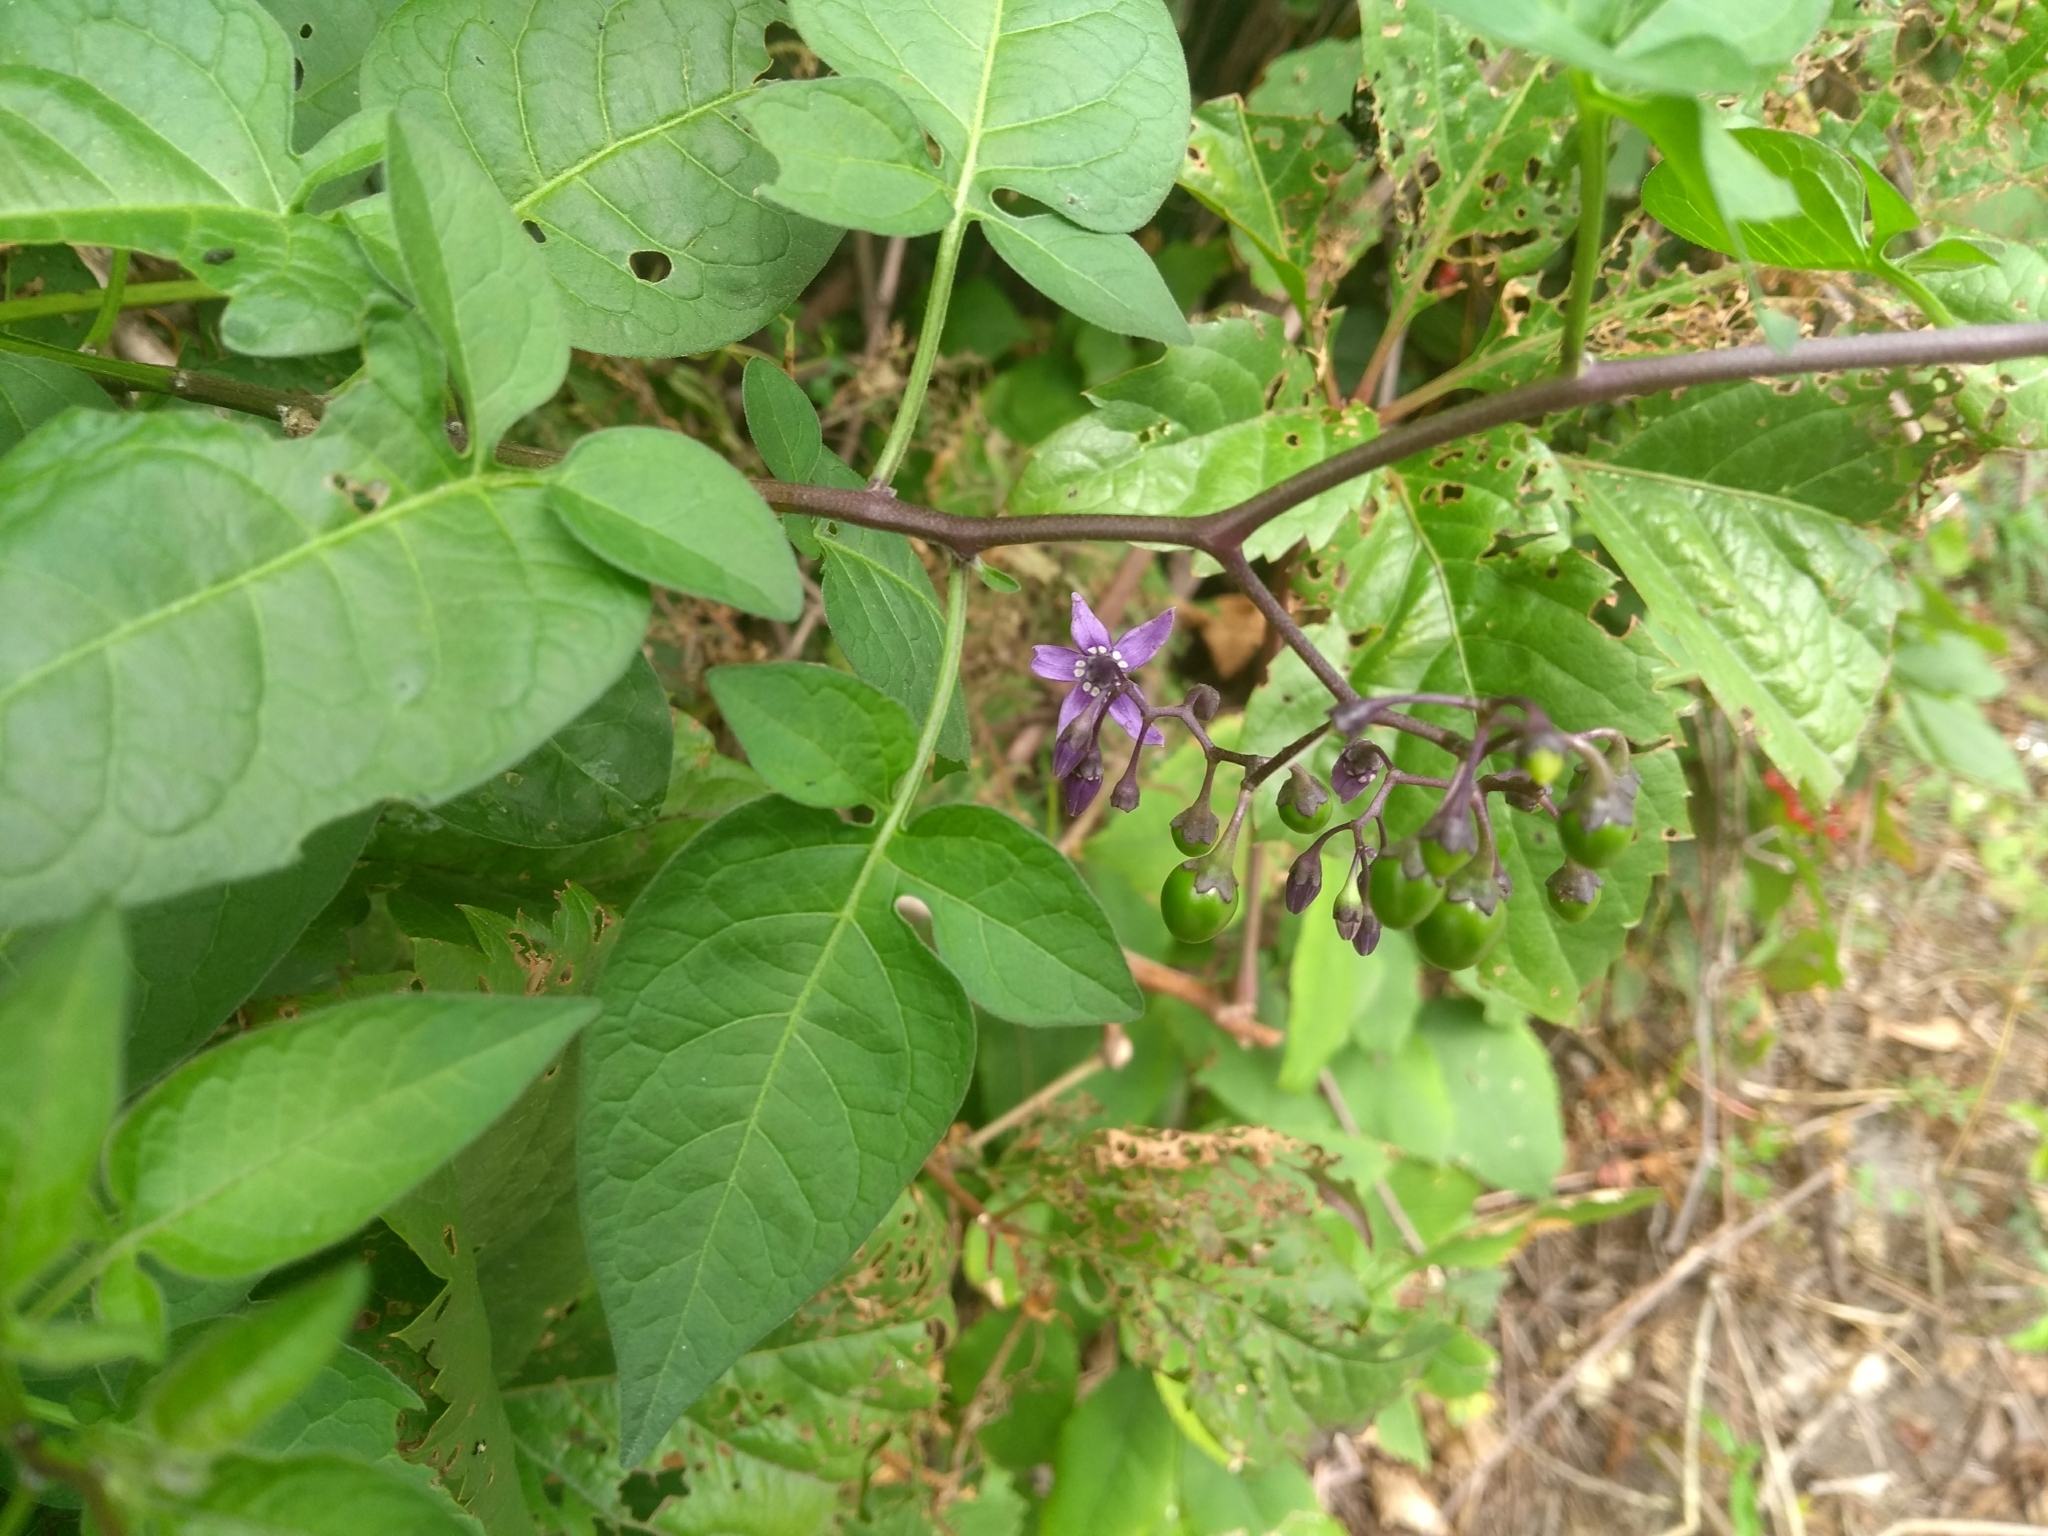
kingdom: Plantae
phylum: Tracheophyta
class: Magnoliopsida
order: Solanales
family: Solanaceae
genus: Solanum
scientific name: Solanum dulcamara
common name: Climbing nightshade
